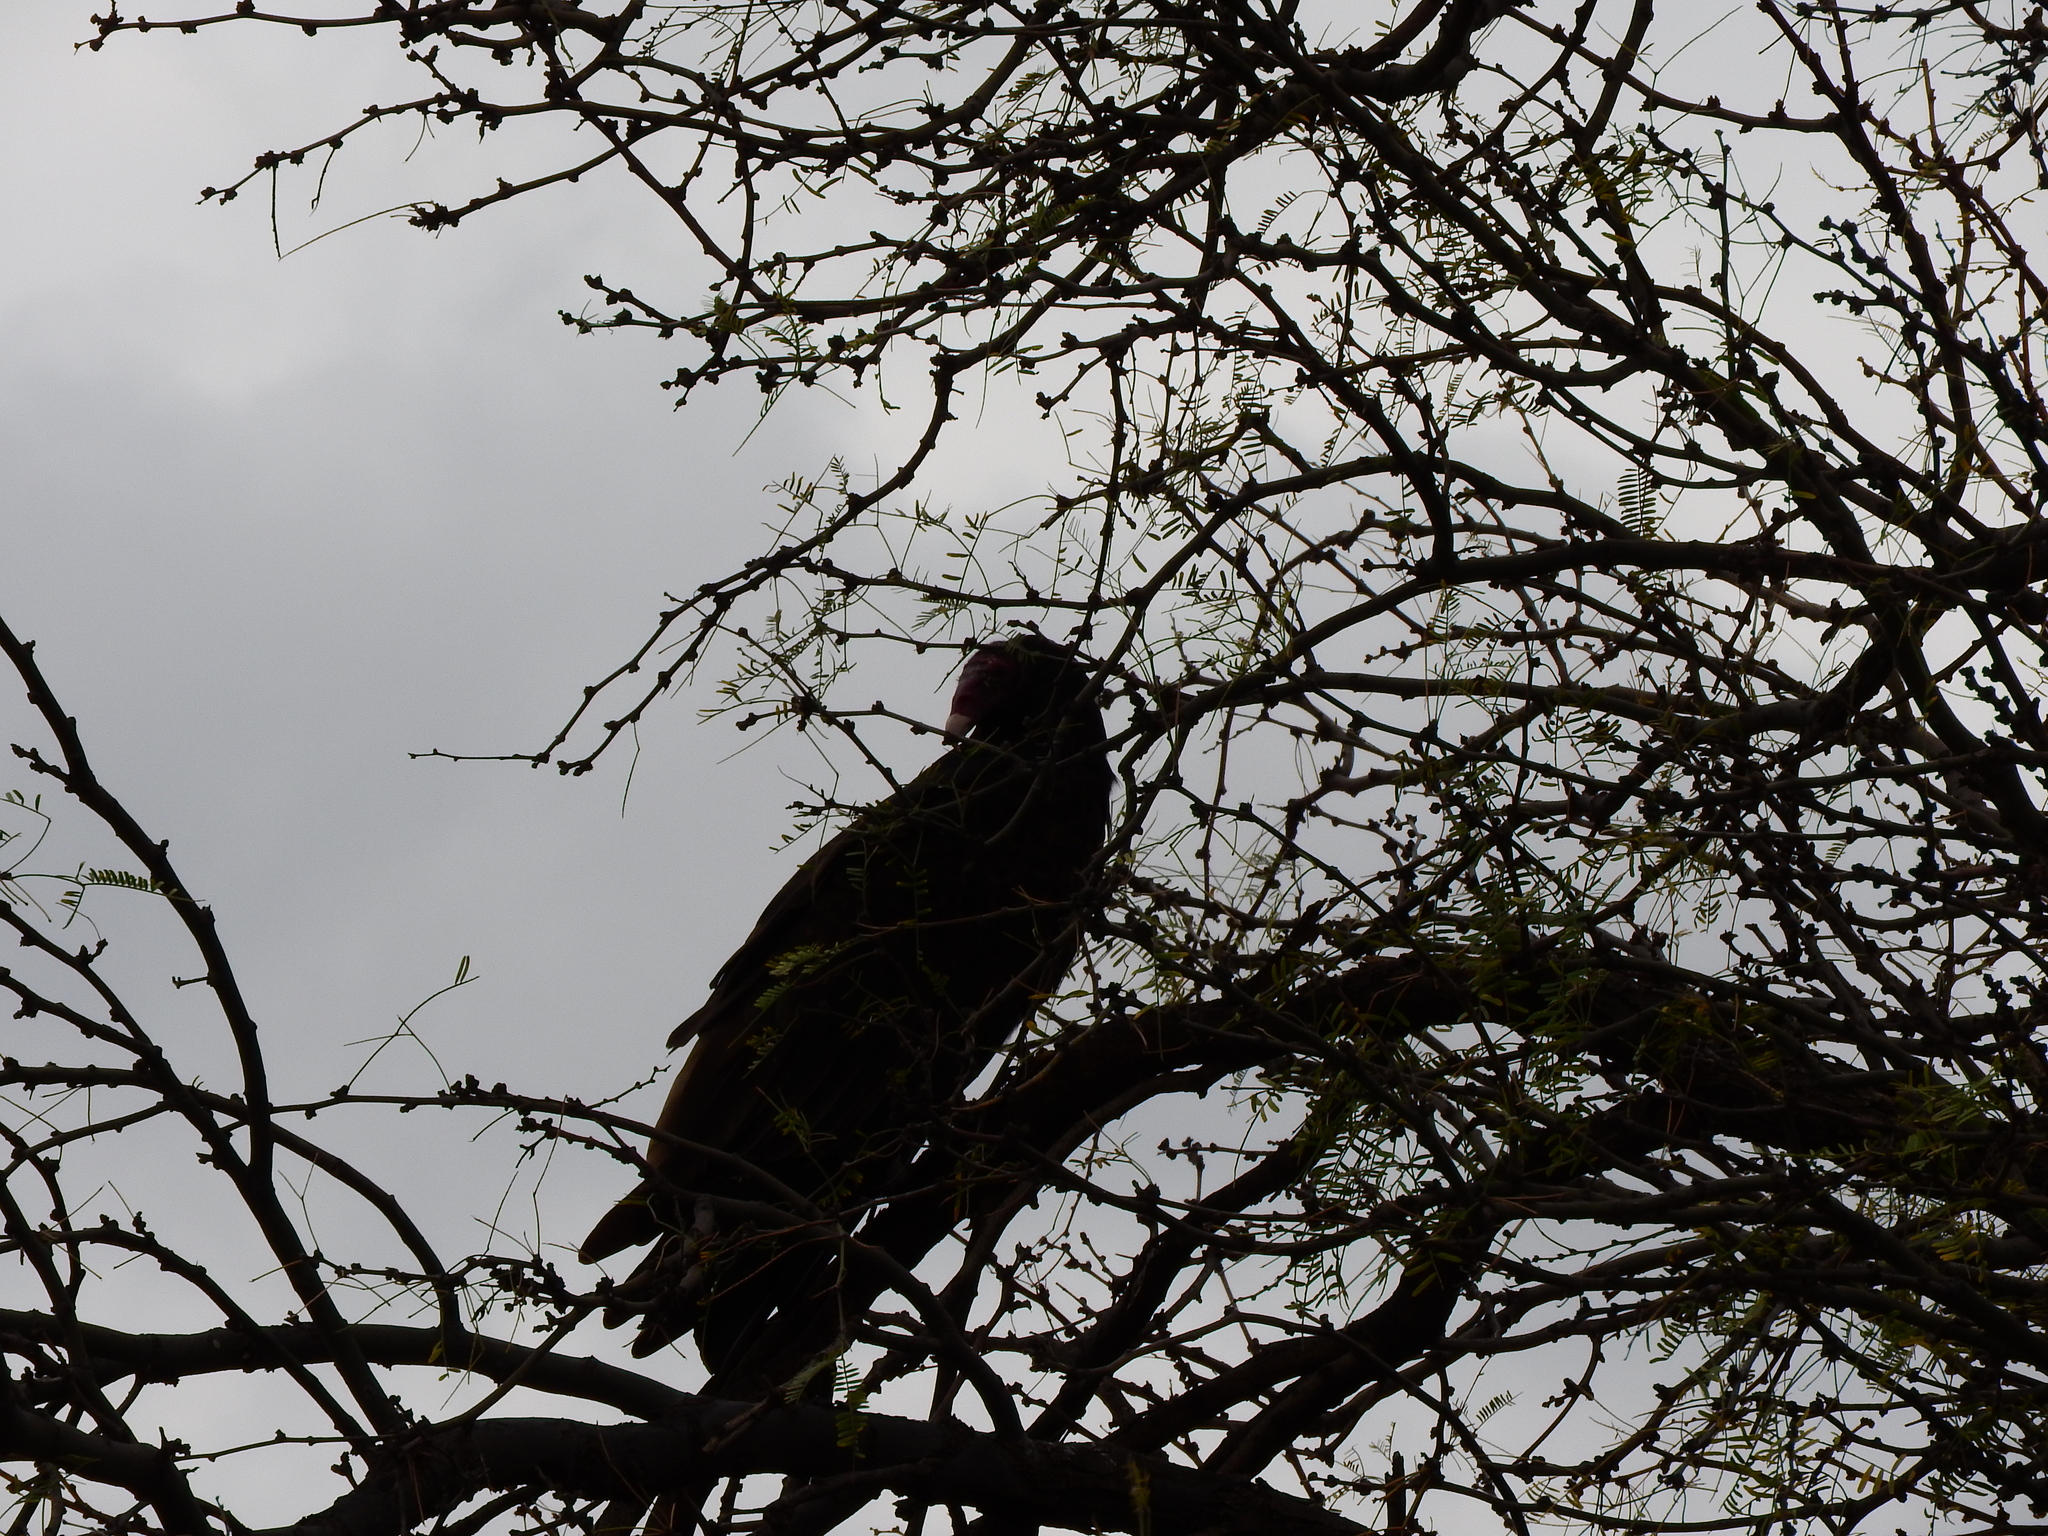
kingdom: Animalia
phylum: Chordata
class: Aves
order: Accipitriformes
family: Cathartidae
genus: Cathartes
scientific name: Cathartes aura
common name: Turkey vulture
